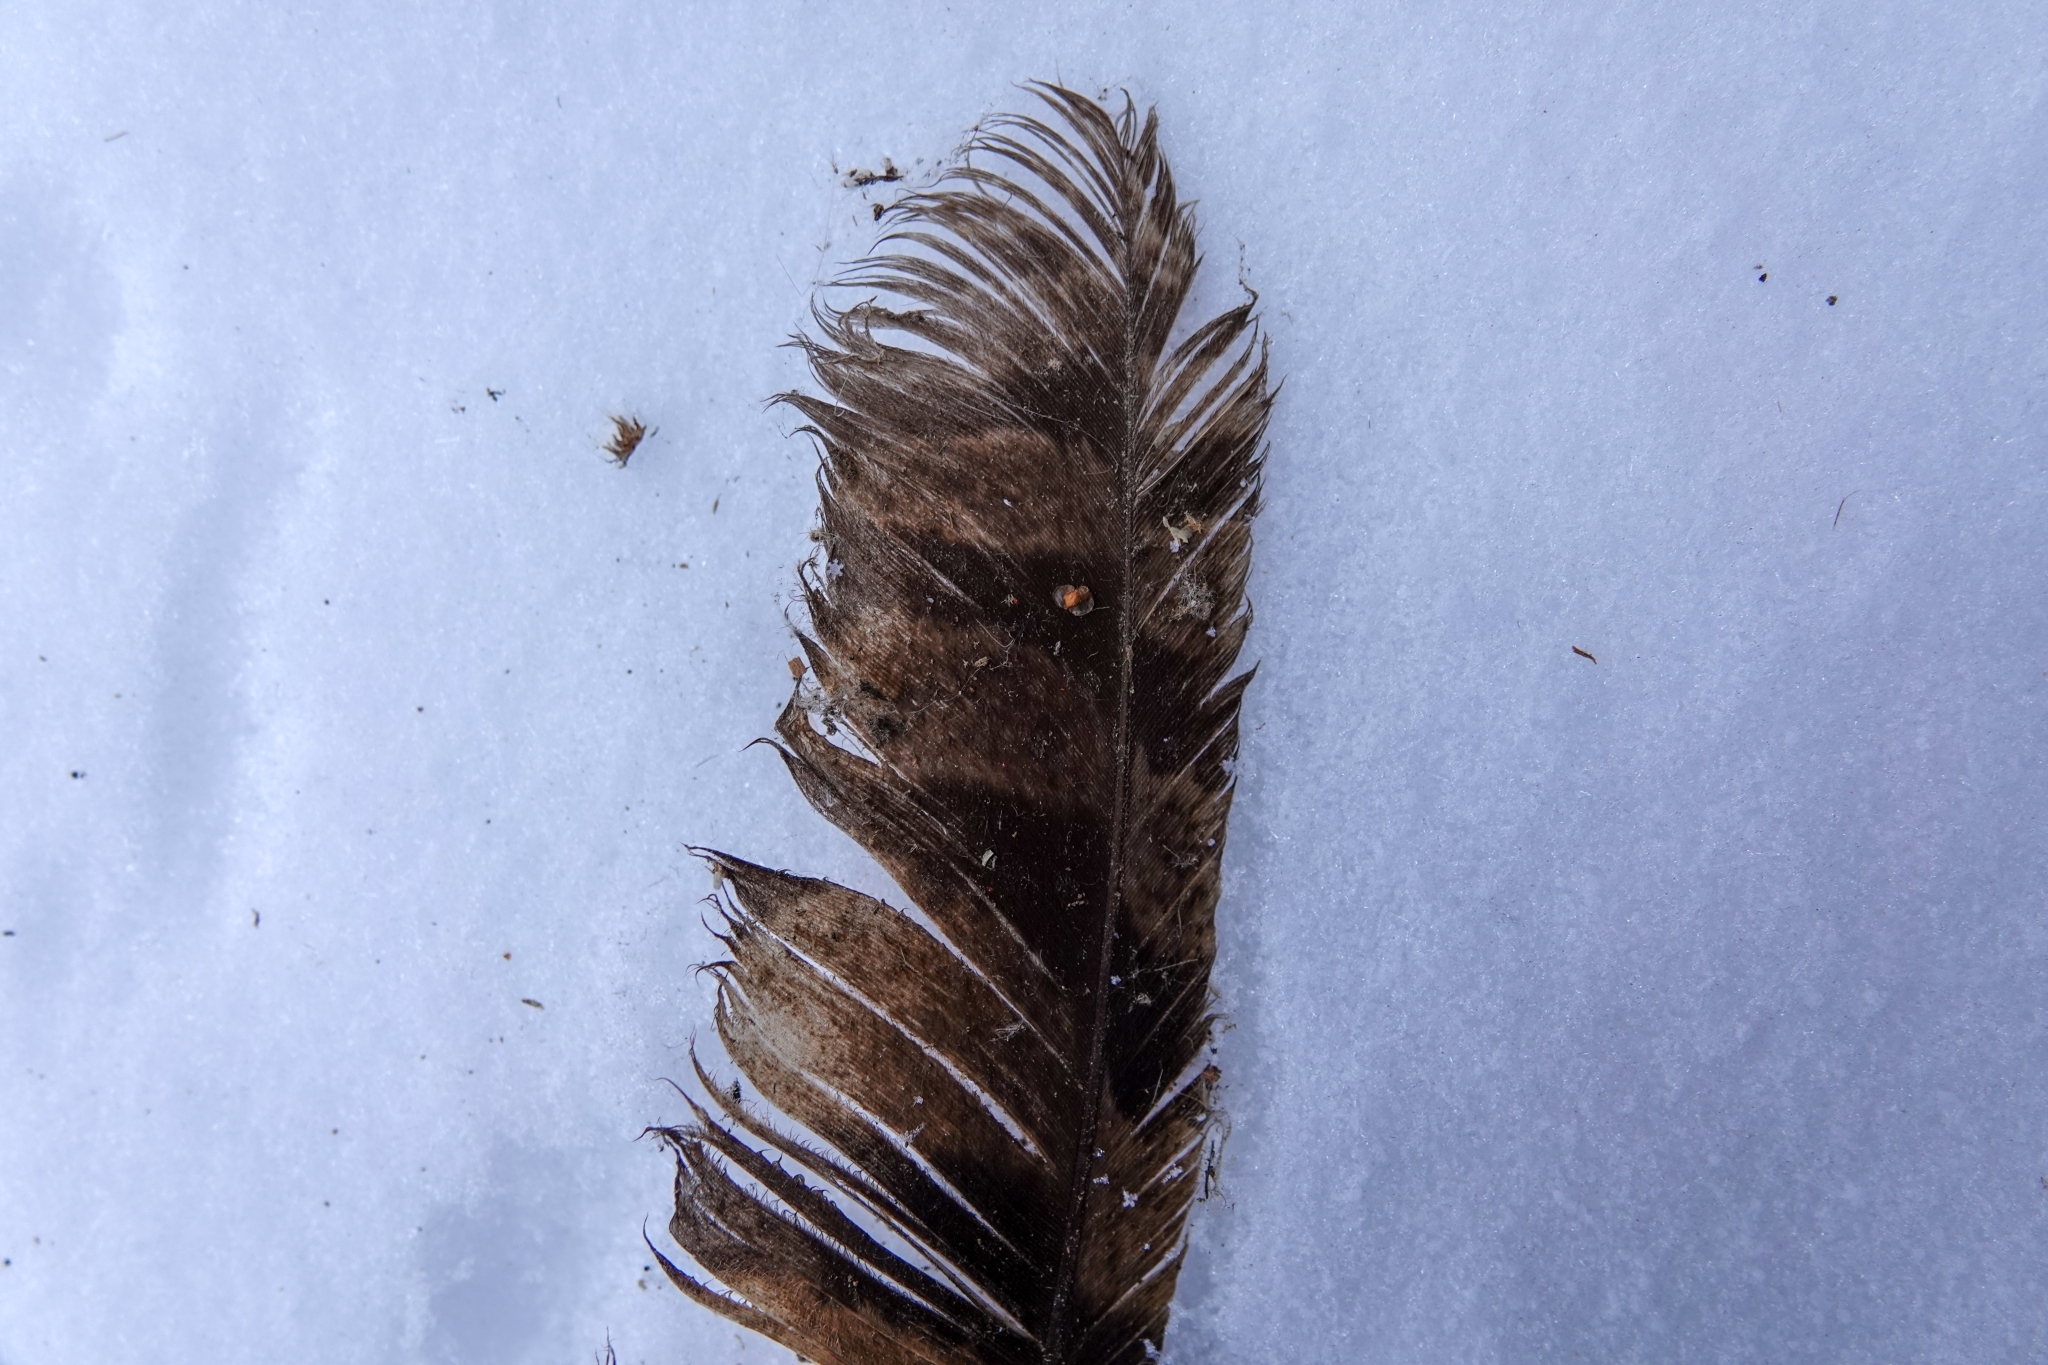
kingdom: Animalia
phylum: Chordata
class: Aves
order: Strigiformes
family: Strigidae
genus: Asio
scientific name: Asio otus
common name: Long-eared owl
